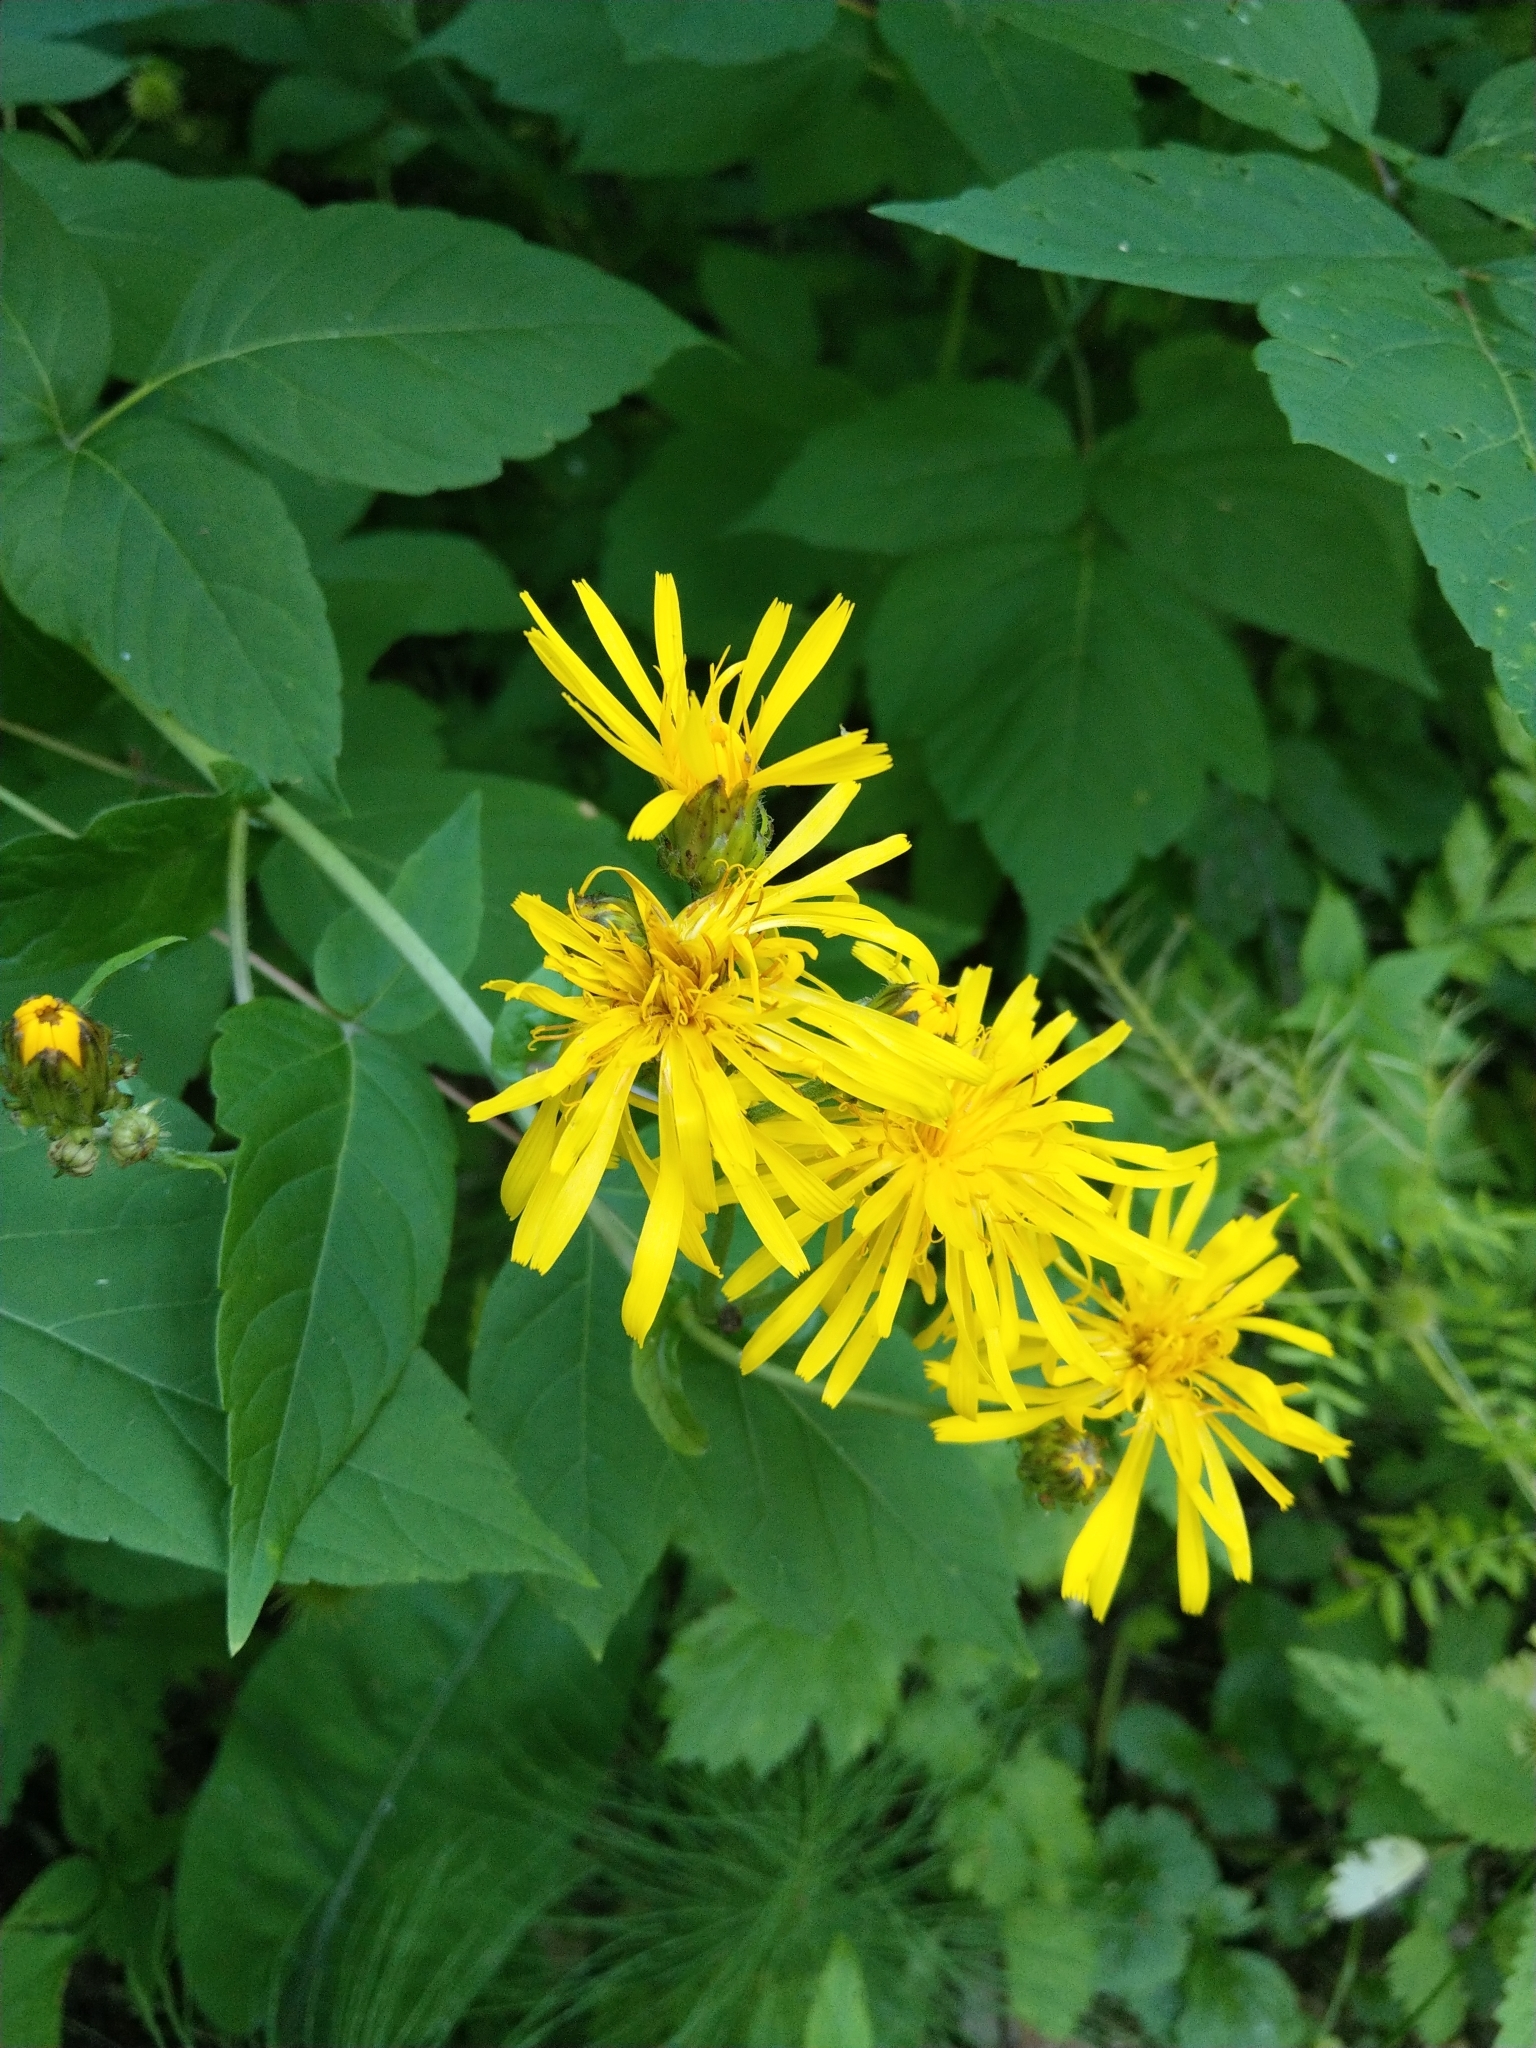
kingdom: Plantae
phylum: Tracheophyta
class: Magnoliopsida
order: Asterales
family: Asteraceae
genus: Crepis
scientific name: Crepis sibirica
